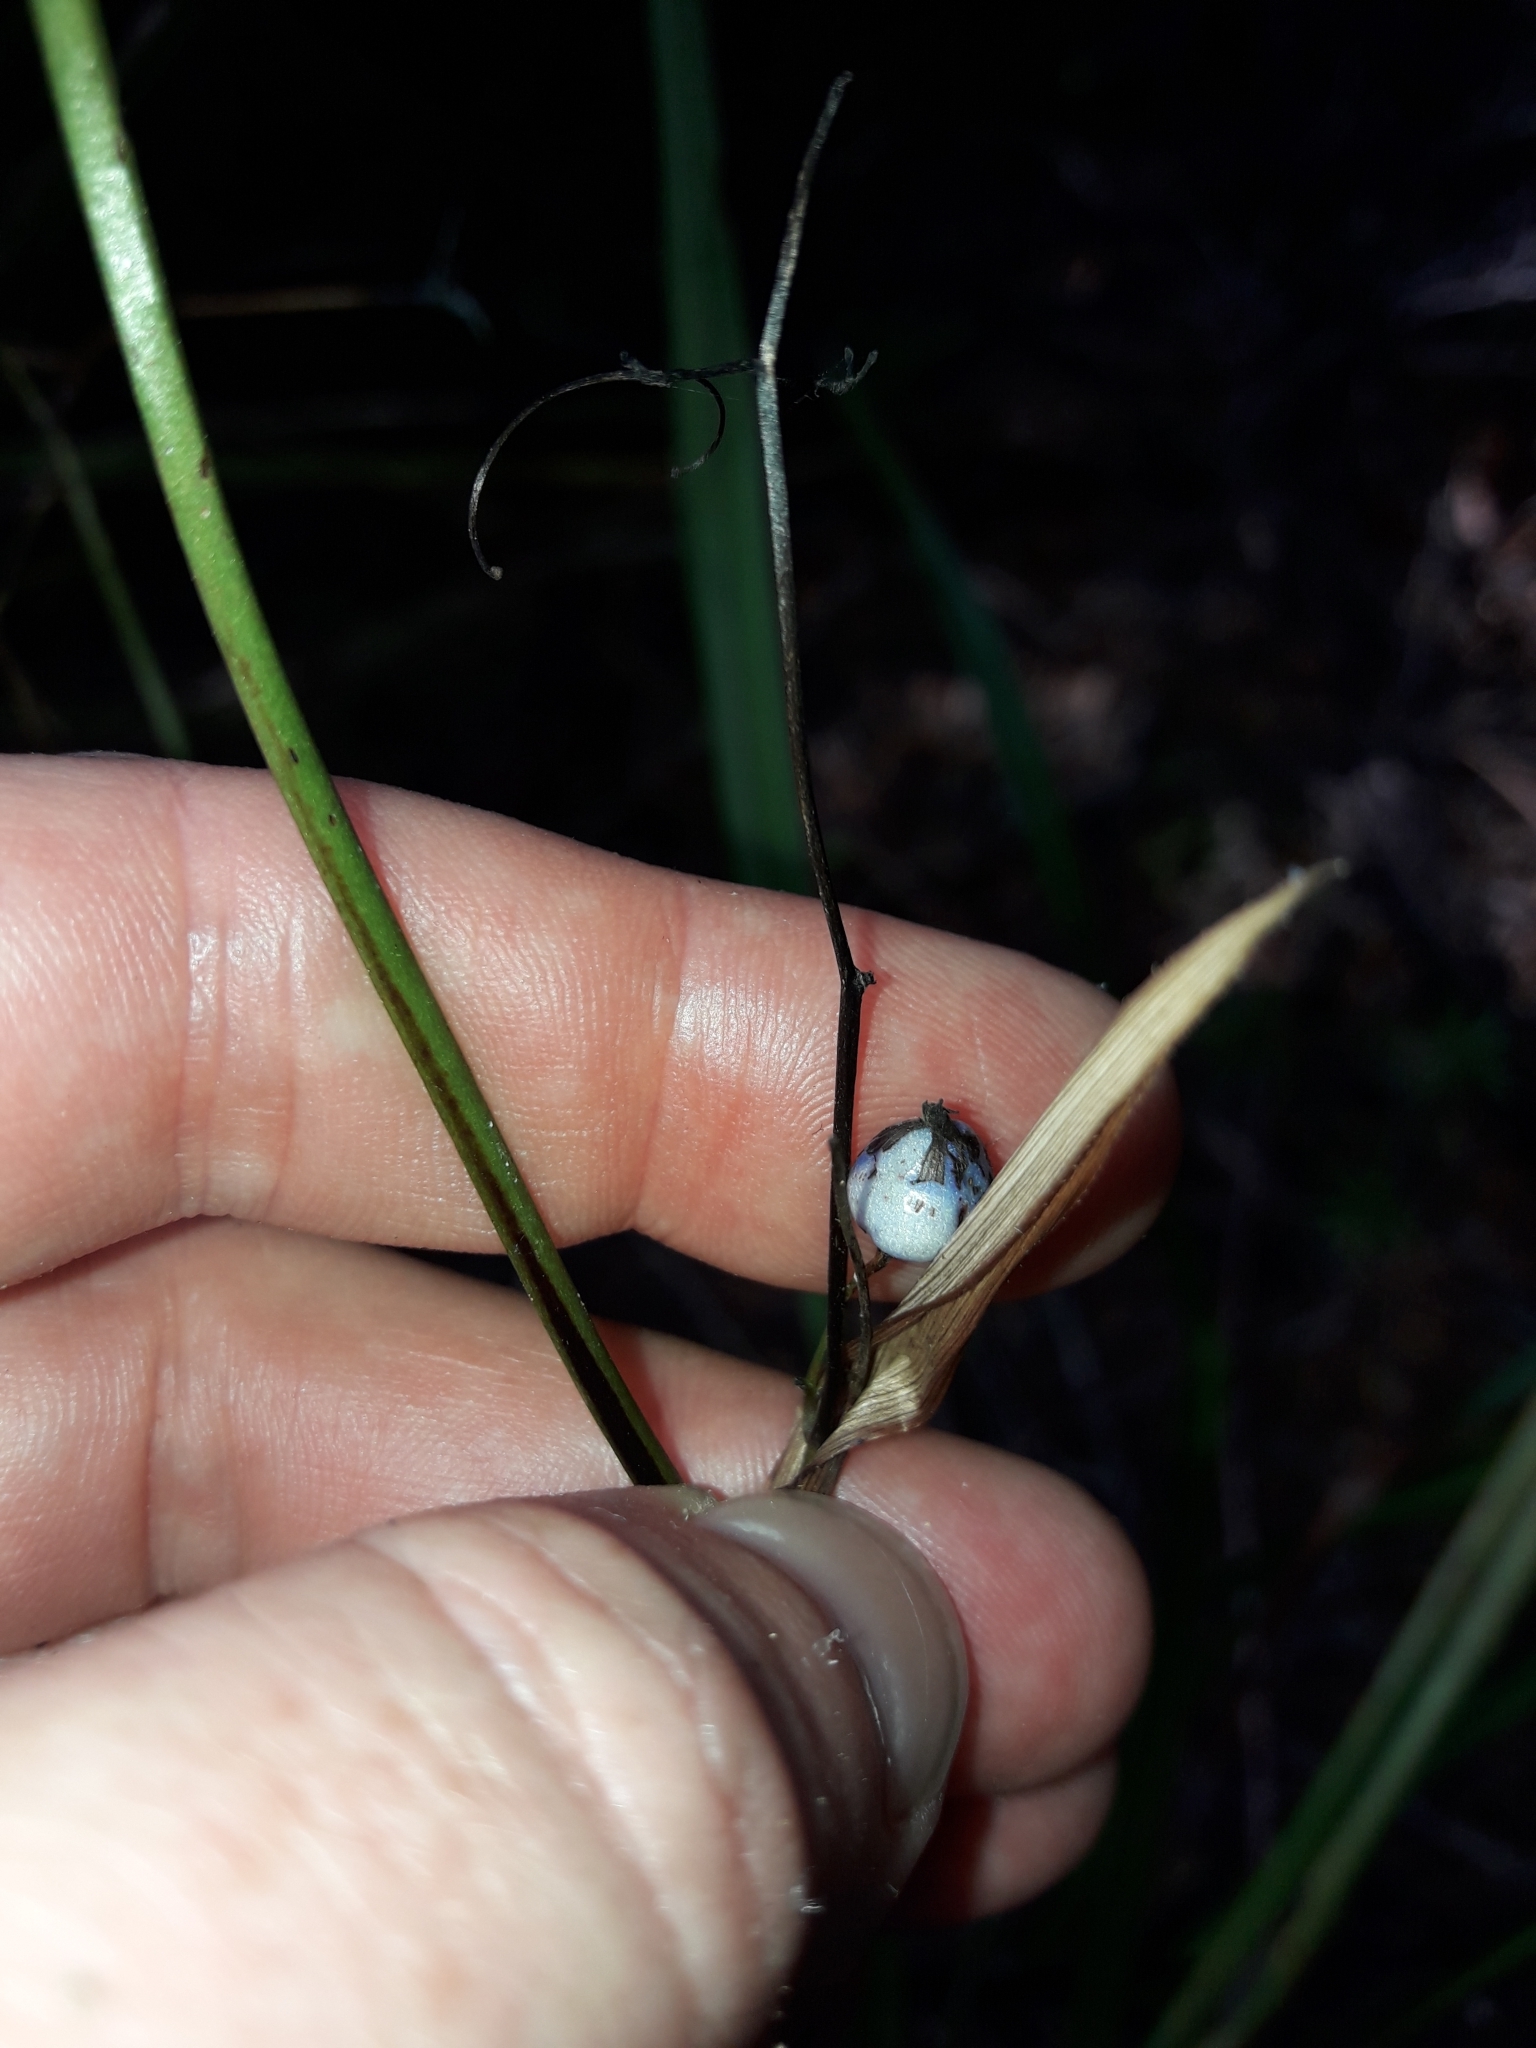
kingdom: Plantae
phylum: Tracheophyta
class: Liliopsida
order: Asparagales
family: Asphodelaceae
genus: Dianella
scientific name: Dianella haematica
